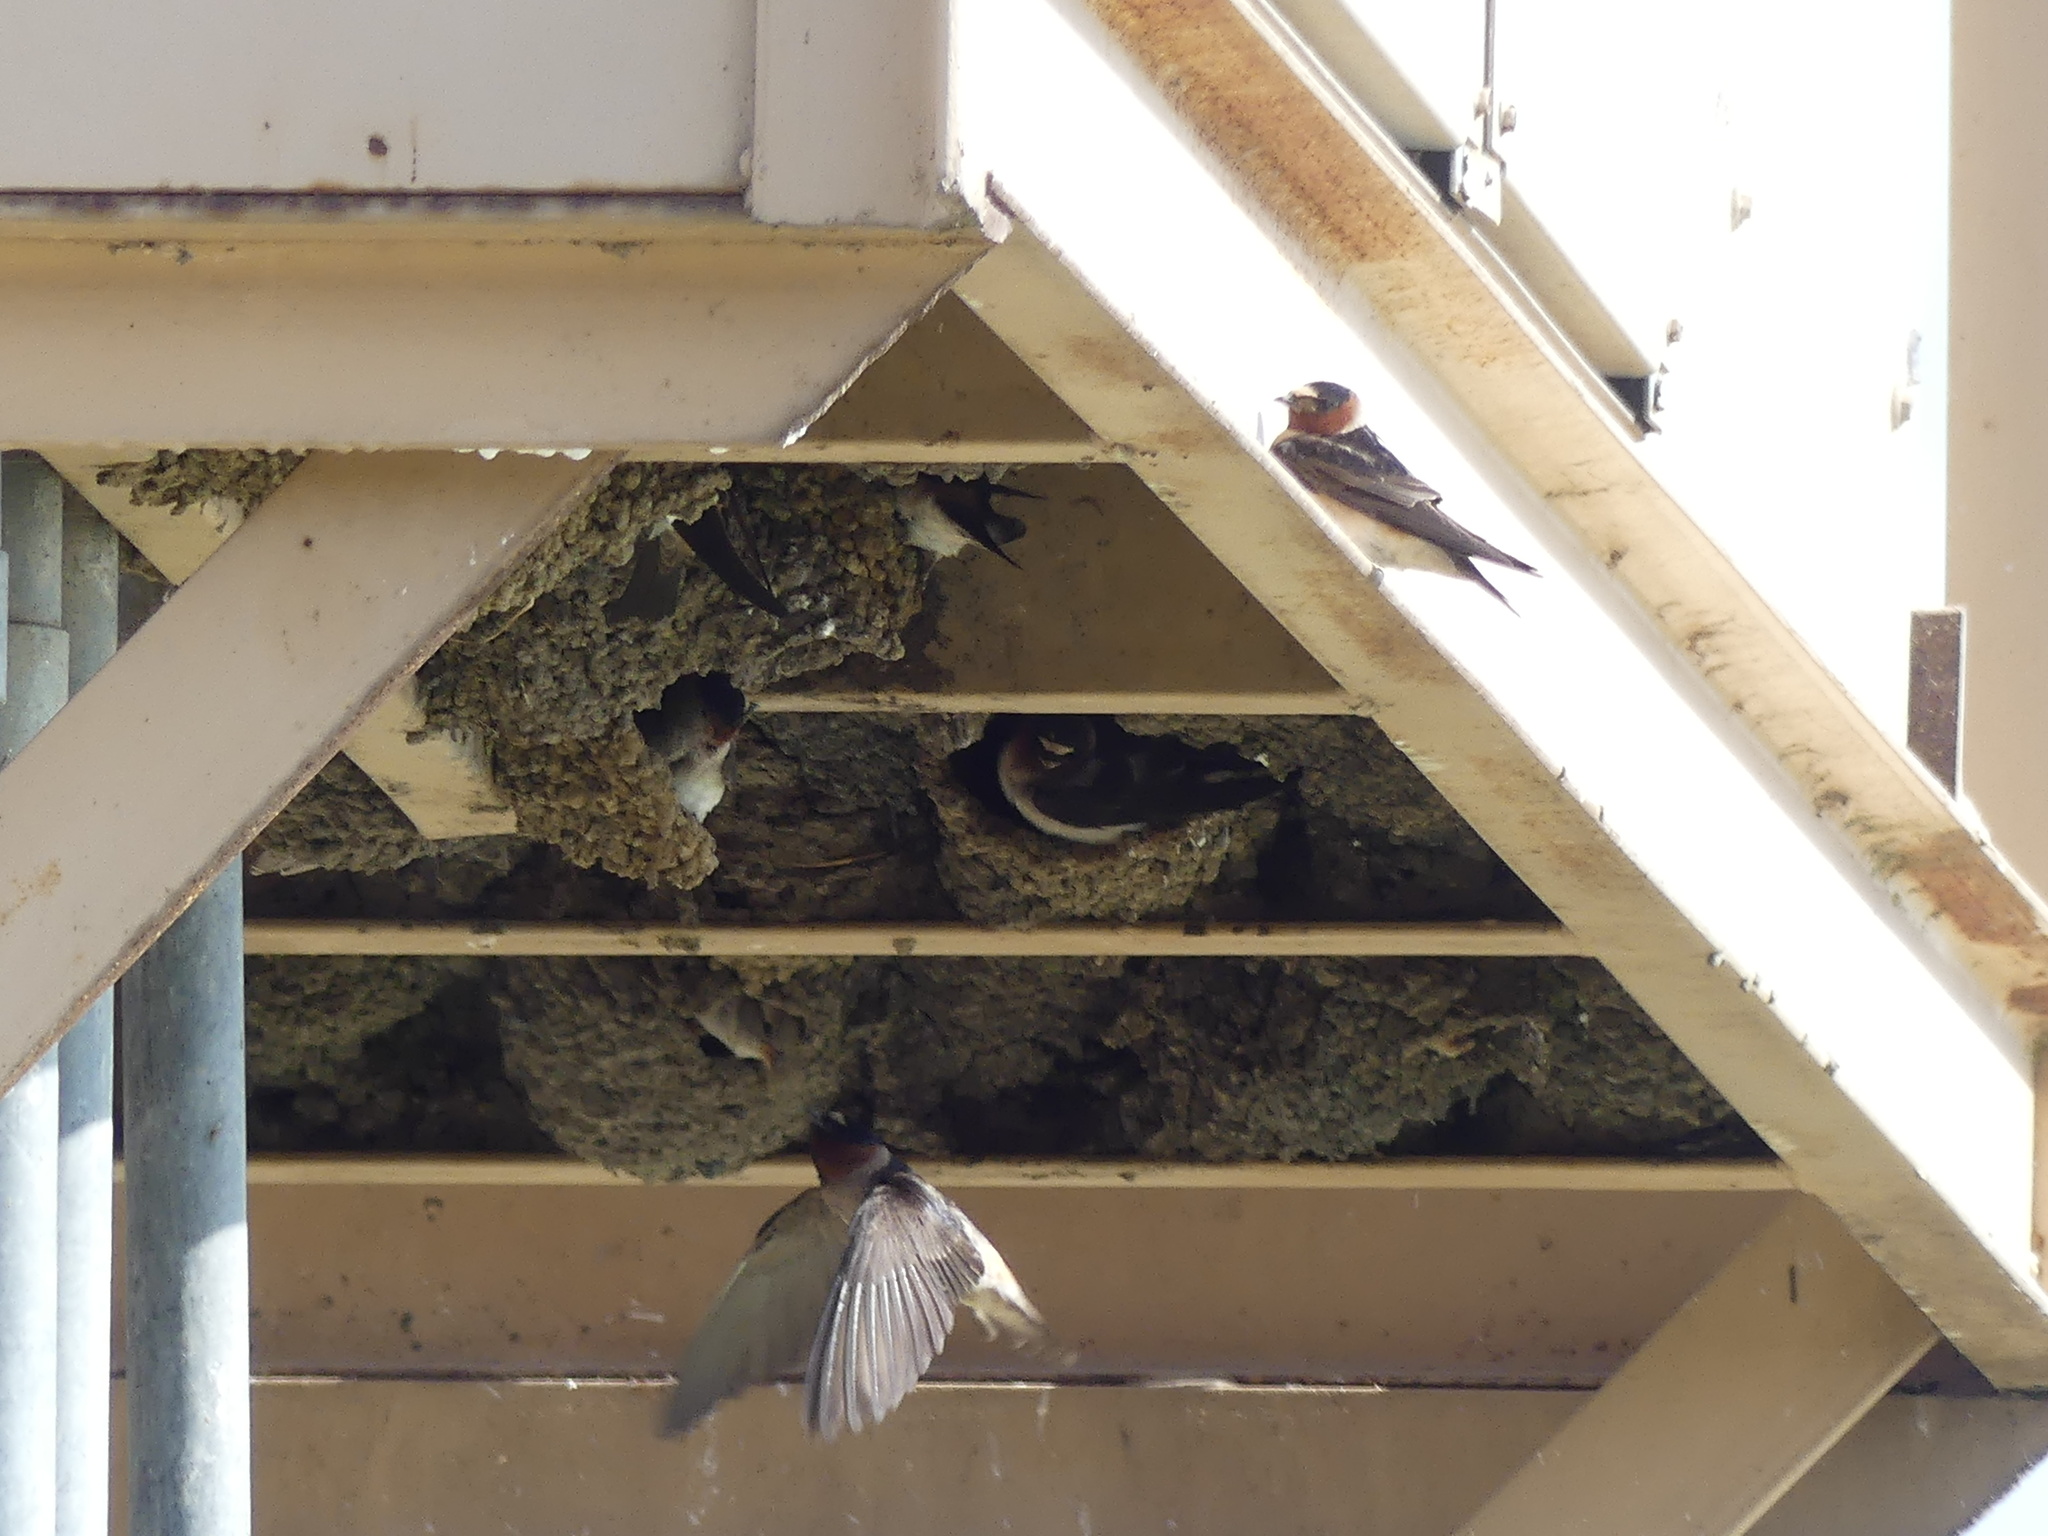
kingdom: Animalia
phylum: Chordata
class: Aves
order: Passeriformes
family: Hirundinidae
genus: Petrochelidon
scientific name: Petrochelidon pyrrhonota
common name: American cliff swallow
